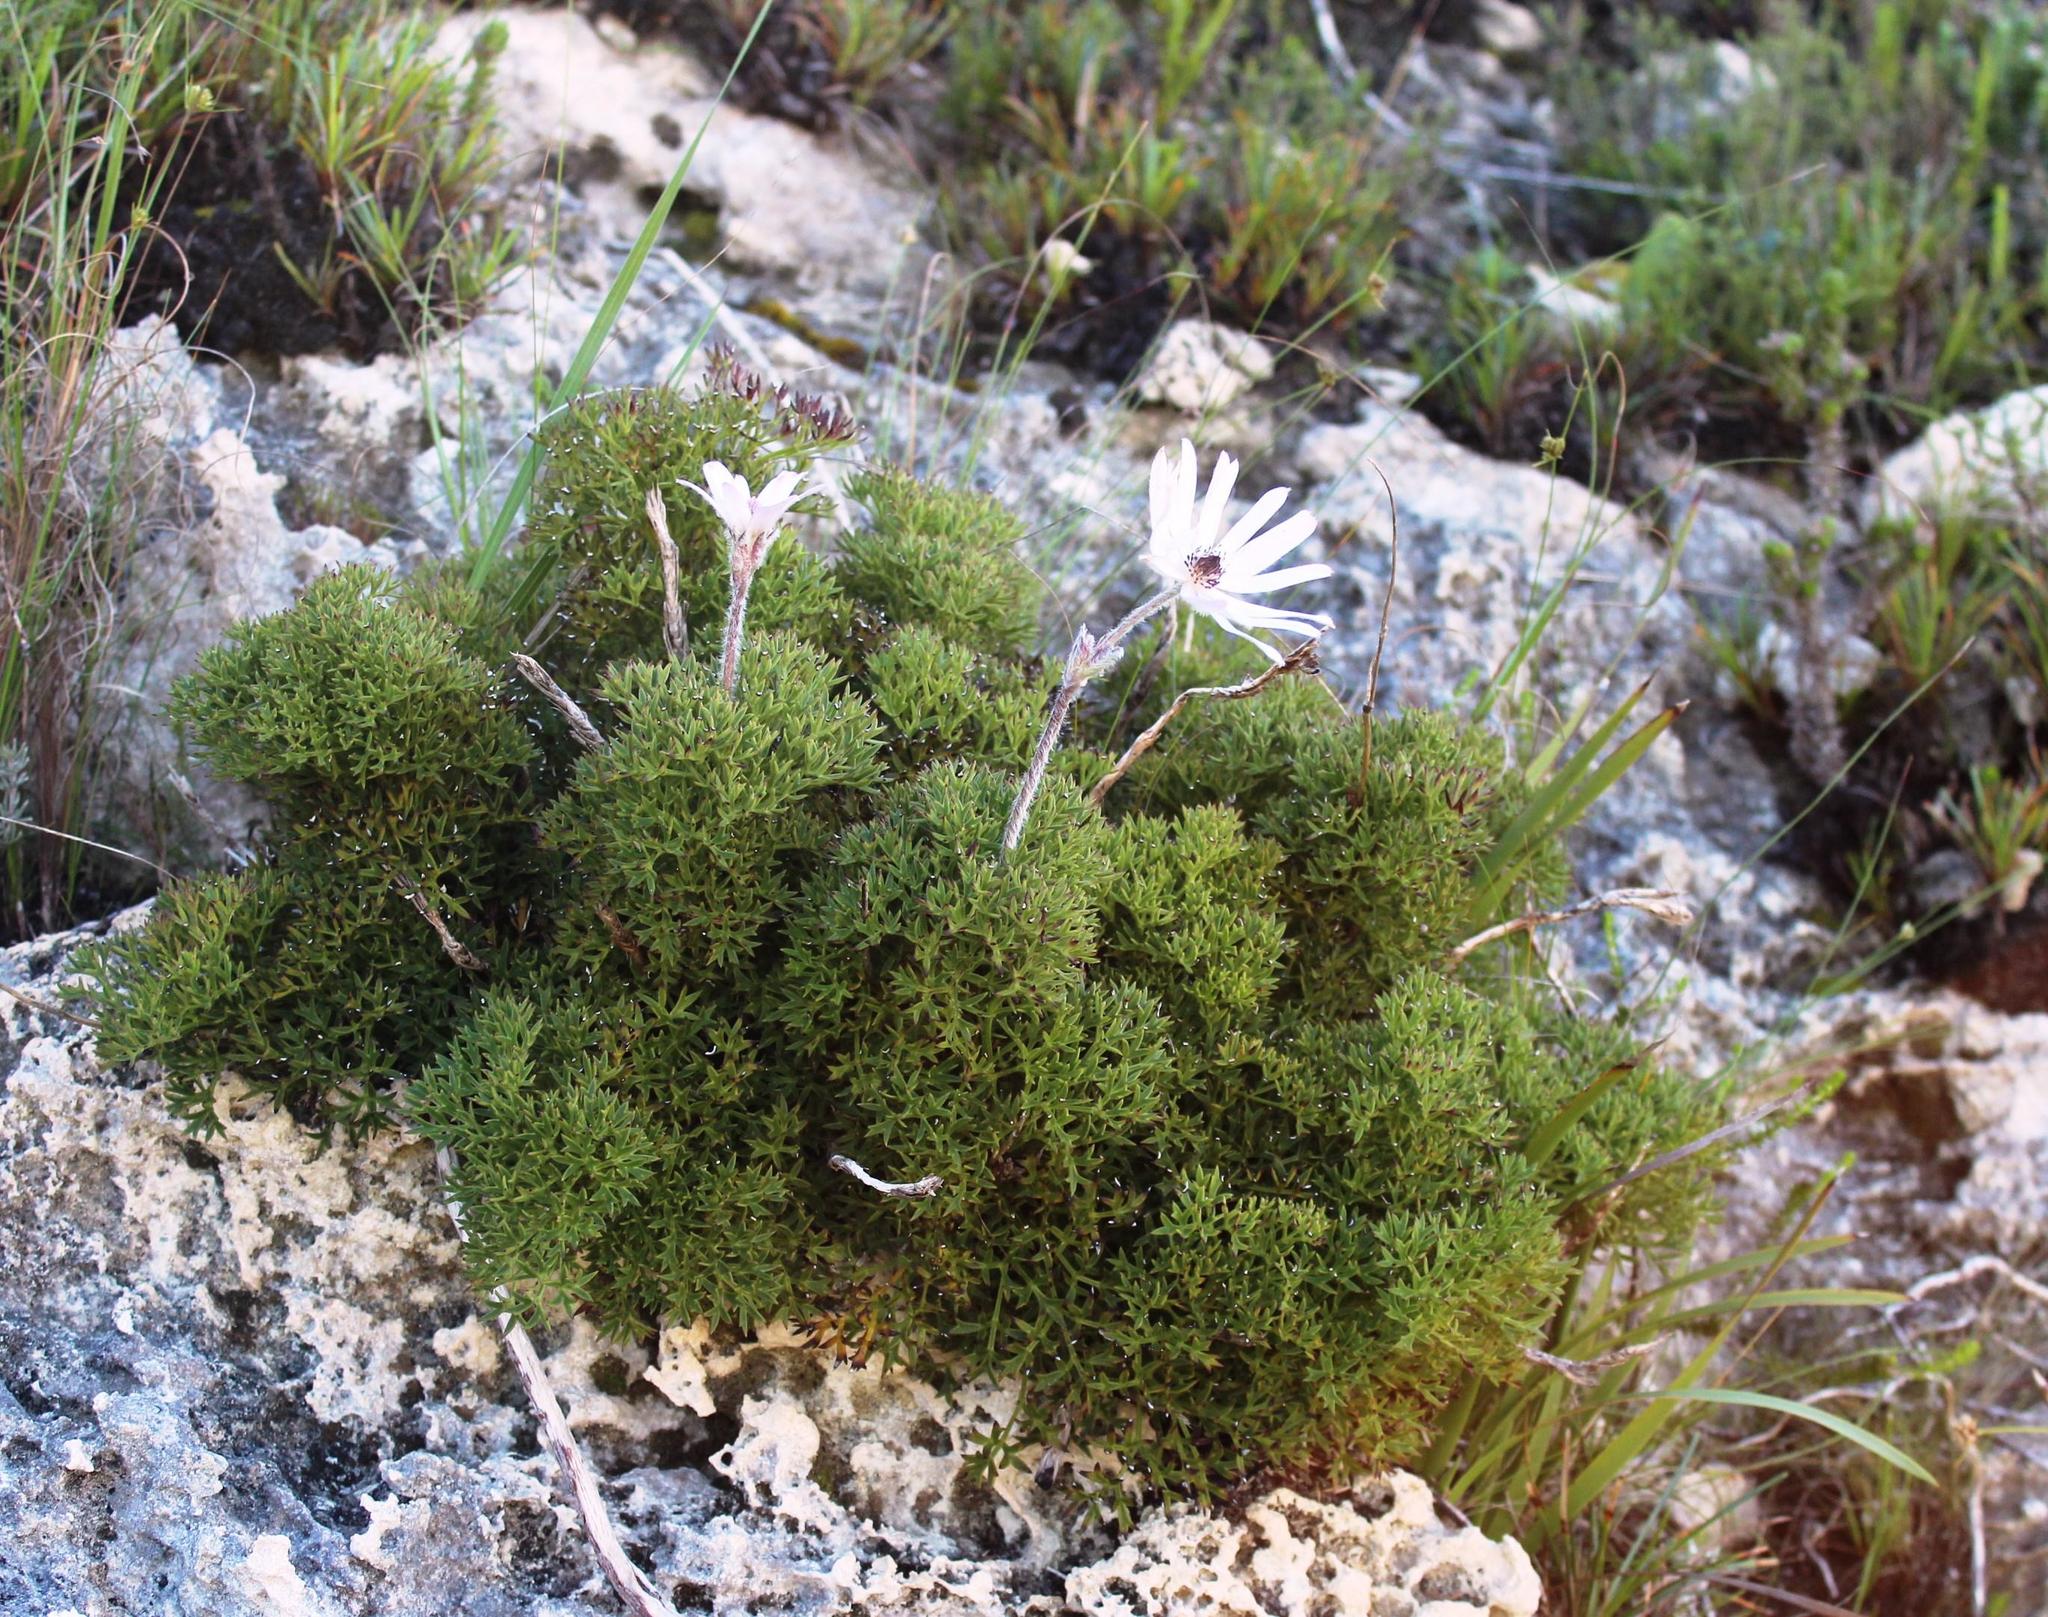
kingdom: Plantae
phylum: Tracheophyta
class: Magnoliopsida
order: Ranunculales
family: Ranunculaceae
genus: Knowltonia
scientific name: Knowltonia tenuifolia
